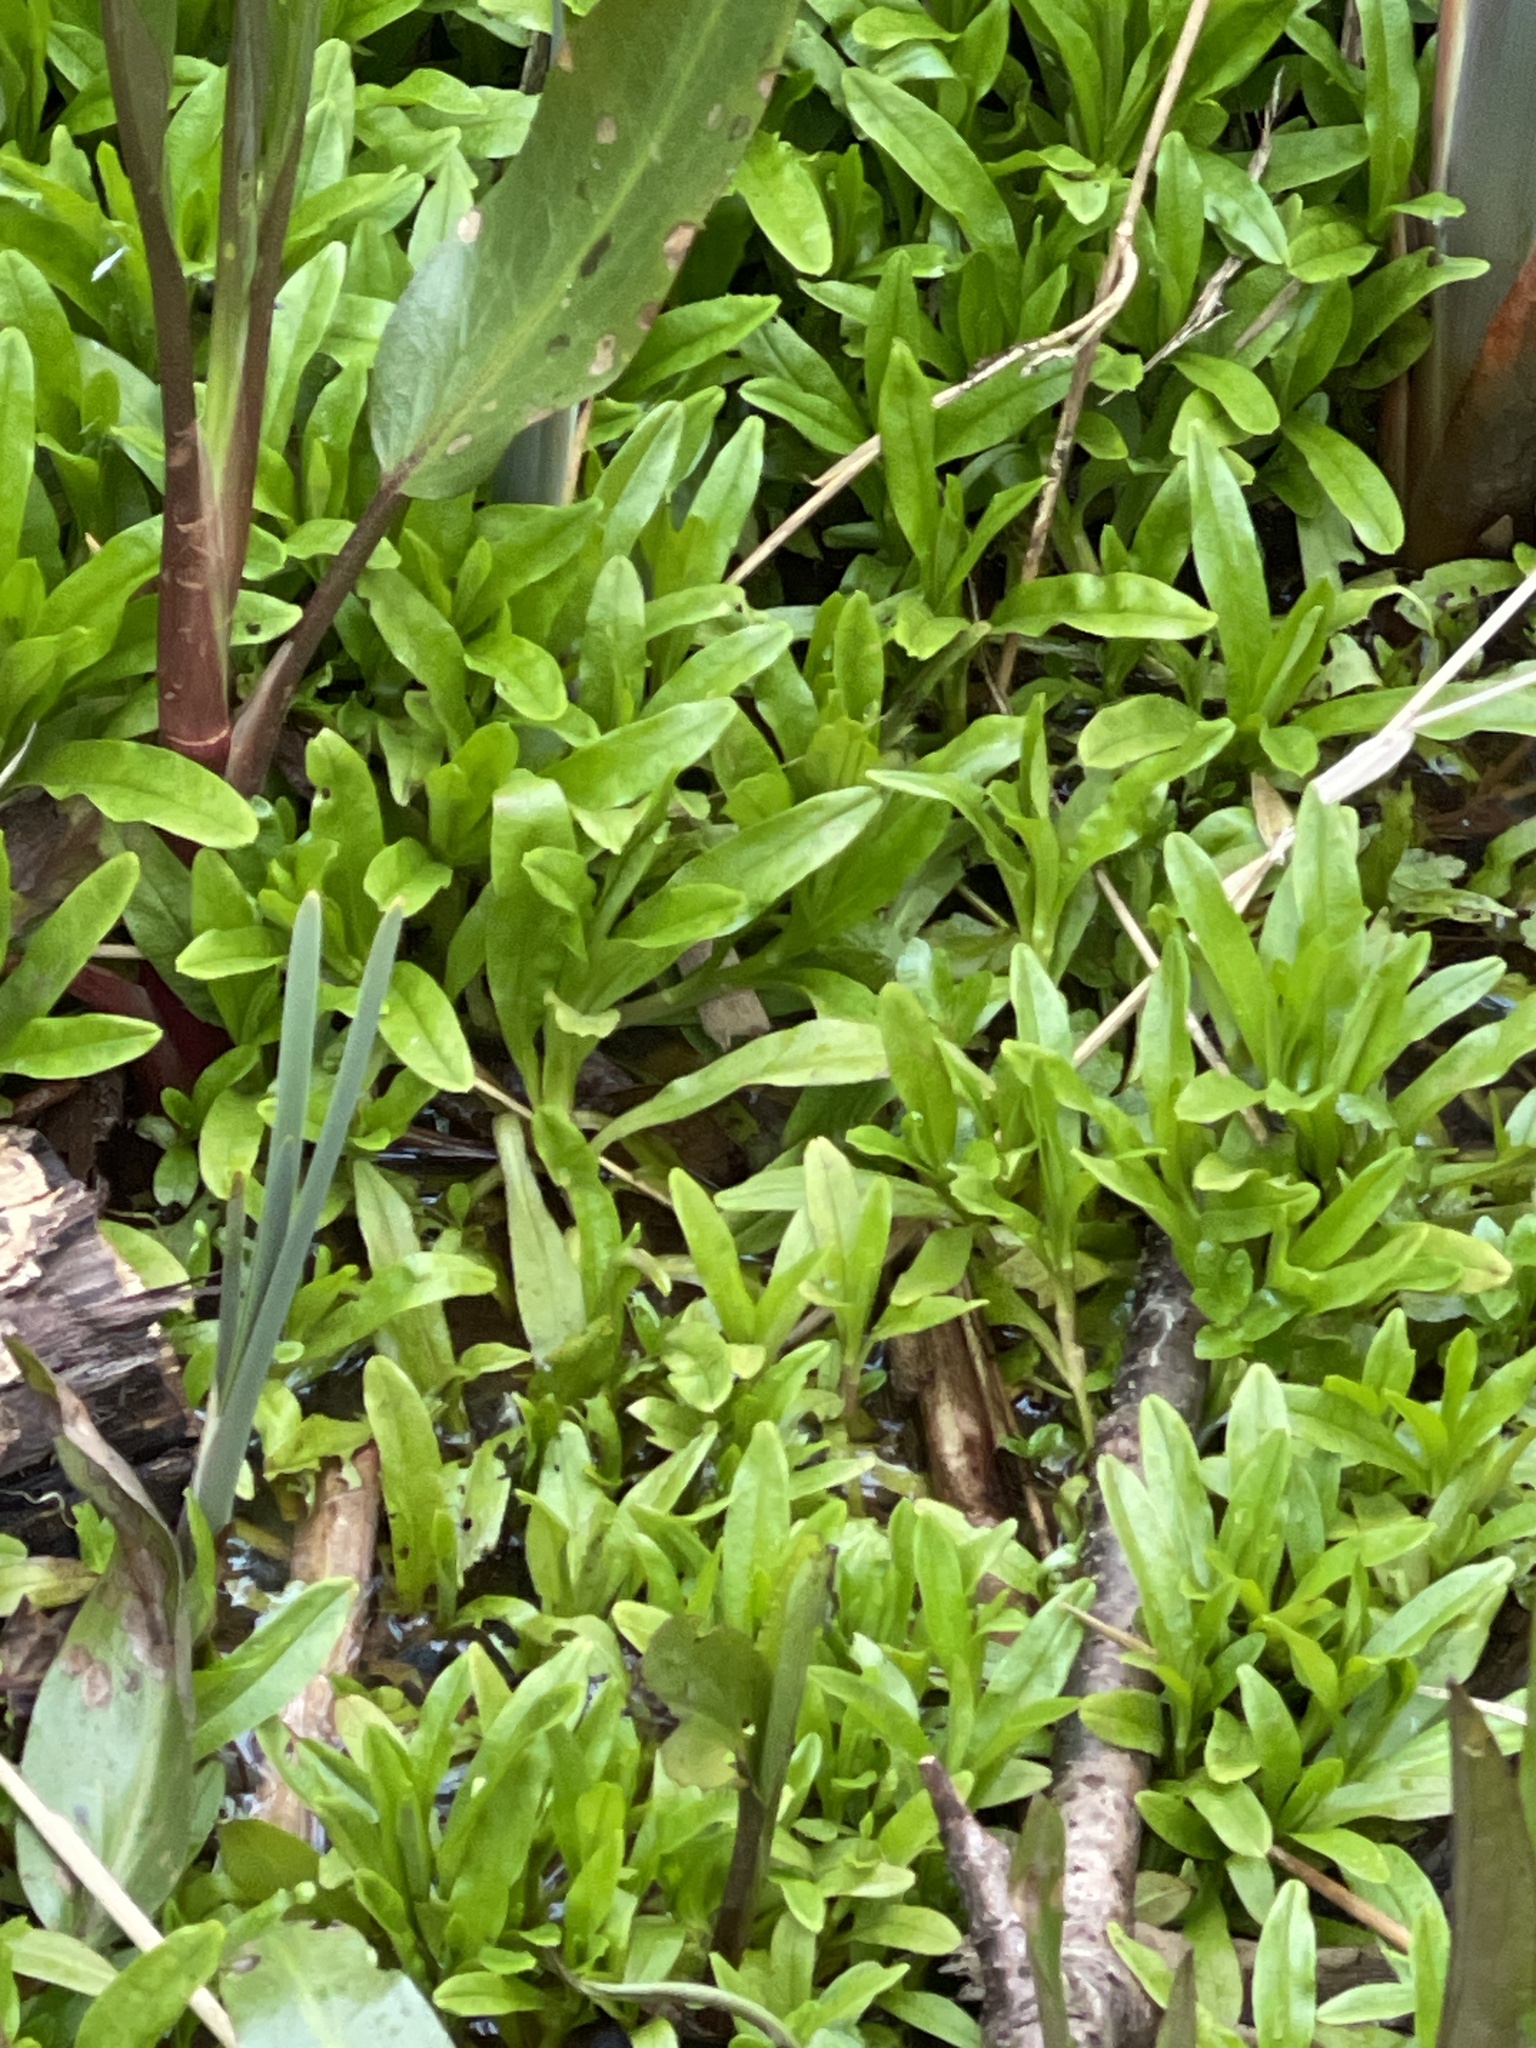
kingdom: Plantae
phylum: Tracheophyta
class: Magnoliopsida
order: Boraginales
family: Boraginaceae
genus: Myosotis
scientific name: Myosotis scorpioides
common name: Water forget-me-not
